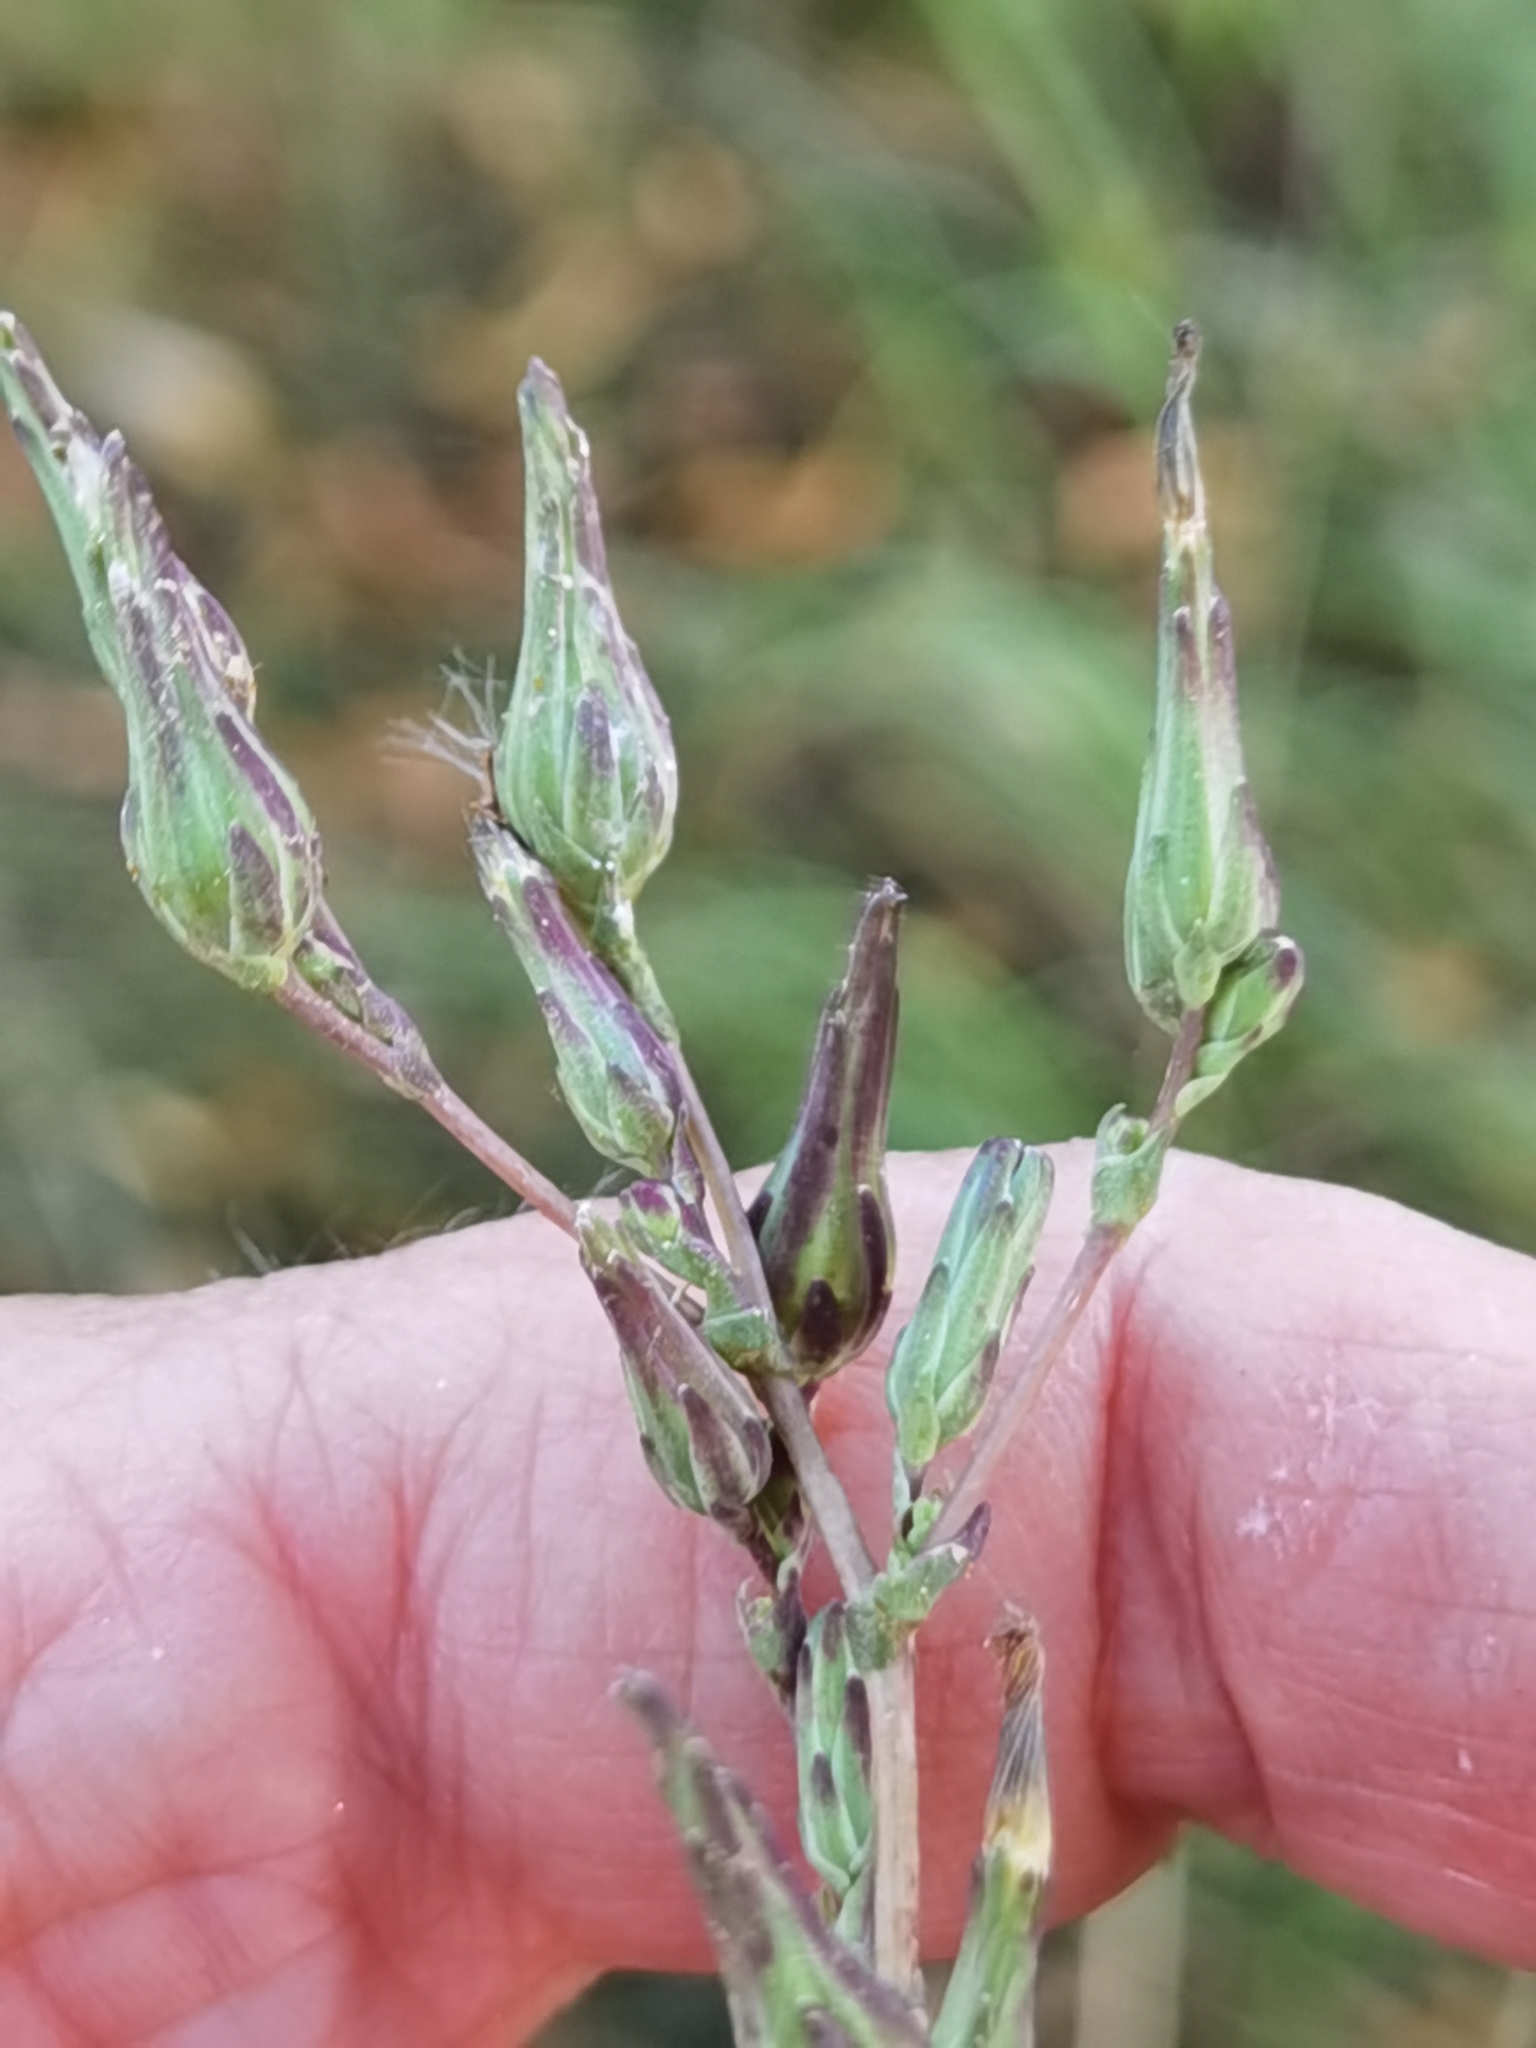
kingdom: Plantae
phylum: Tracheophyta
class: Magnoliopsida
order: Asterales
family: Asteraceae
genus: Lactuca
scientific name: Lactuca serriola
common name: Prickly lettuce
